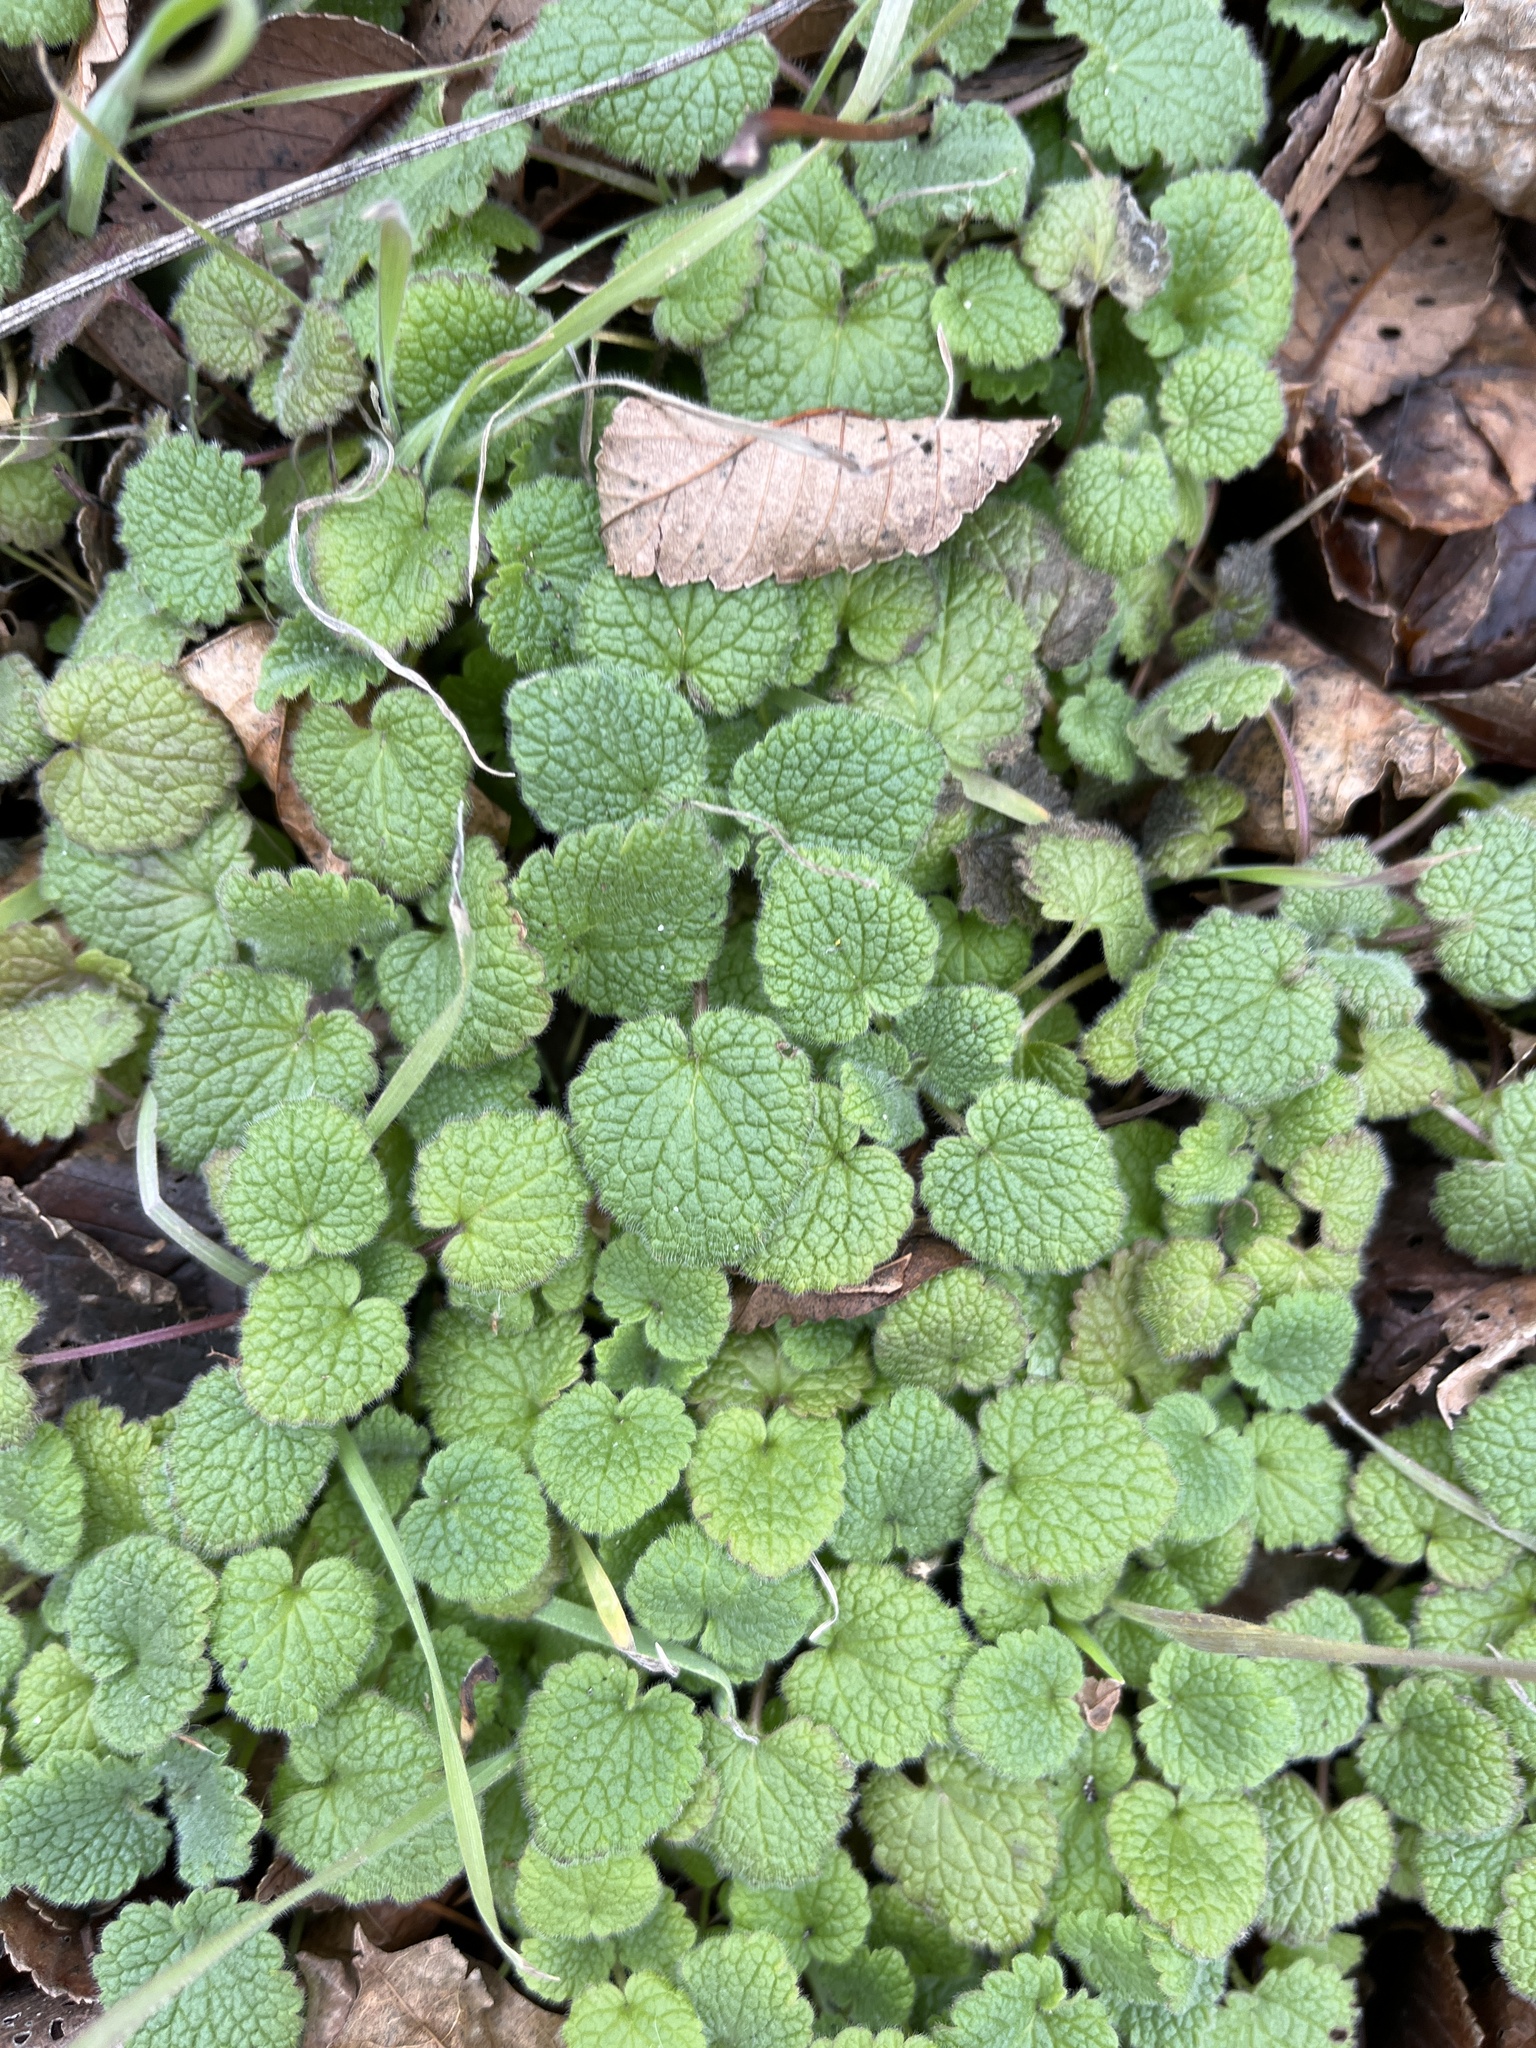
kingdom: Plantae
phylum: Tracheophyta
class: Magnoliopsida
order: Lamiales
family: Lamiaceae
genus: Lamium
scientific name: Lamium purpureum
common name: Red dead-nettle
